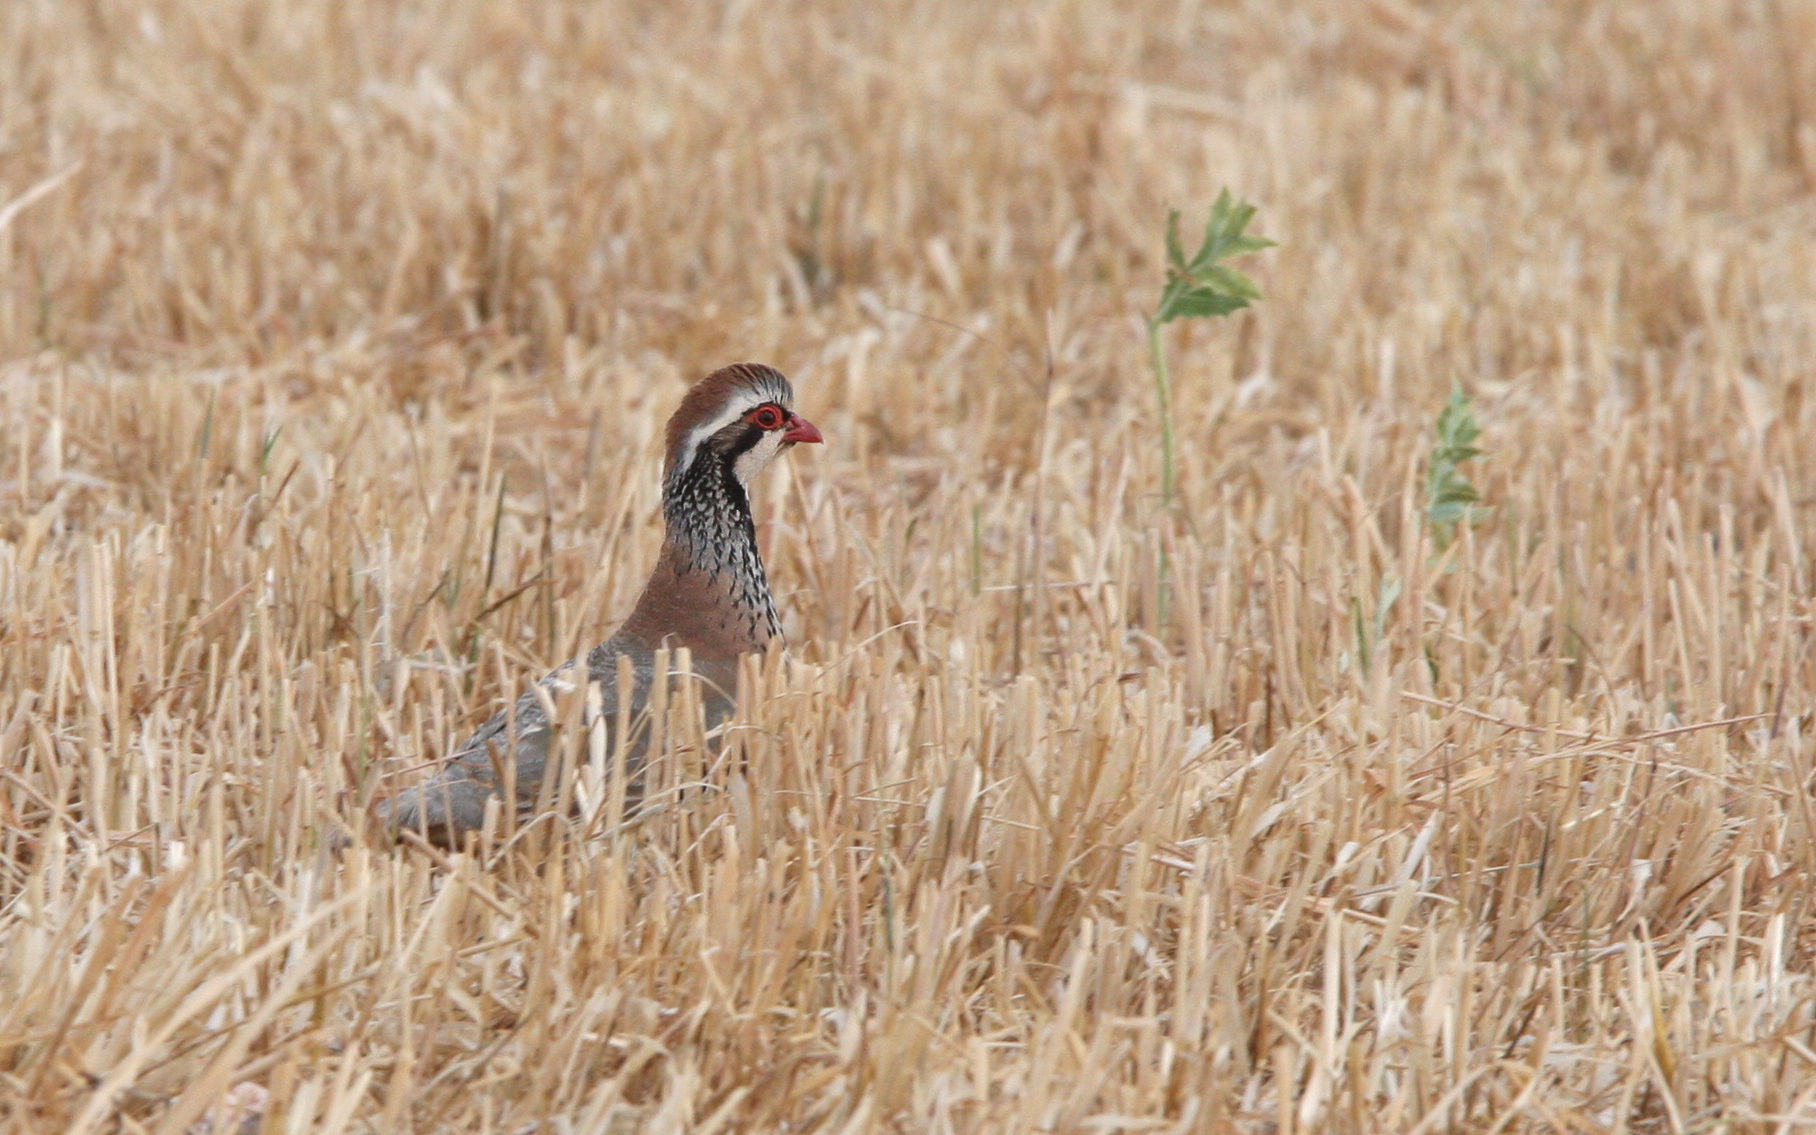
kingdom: Animalia
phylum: Chordata
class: Aves
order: Galliformes
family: Phasianidae
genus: Alectoris
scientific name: Alectoris rufa
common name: Red-legged partridge
